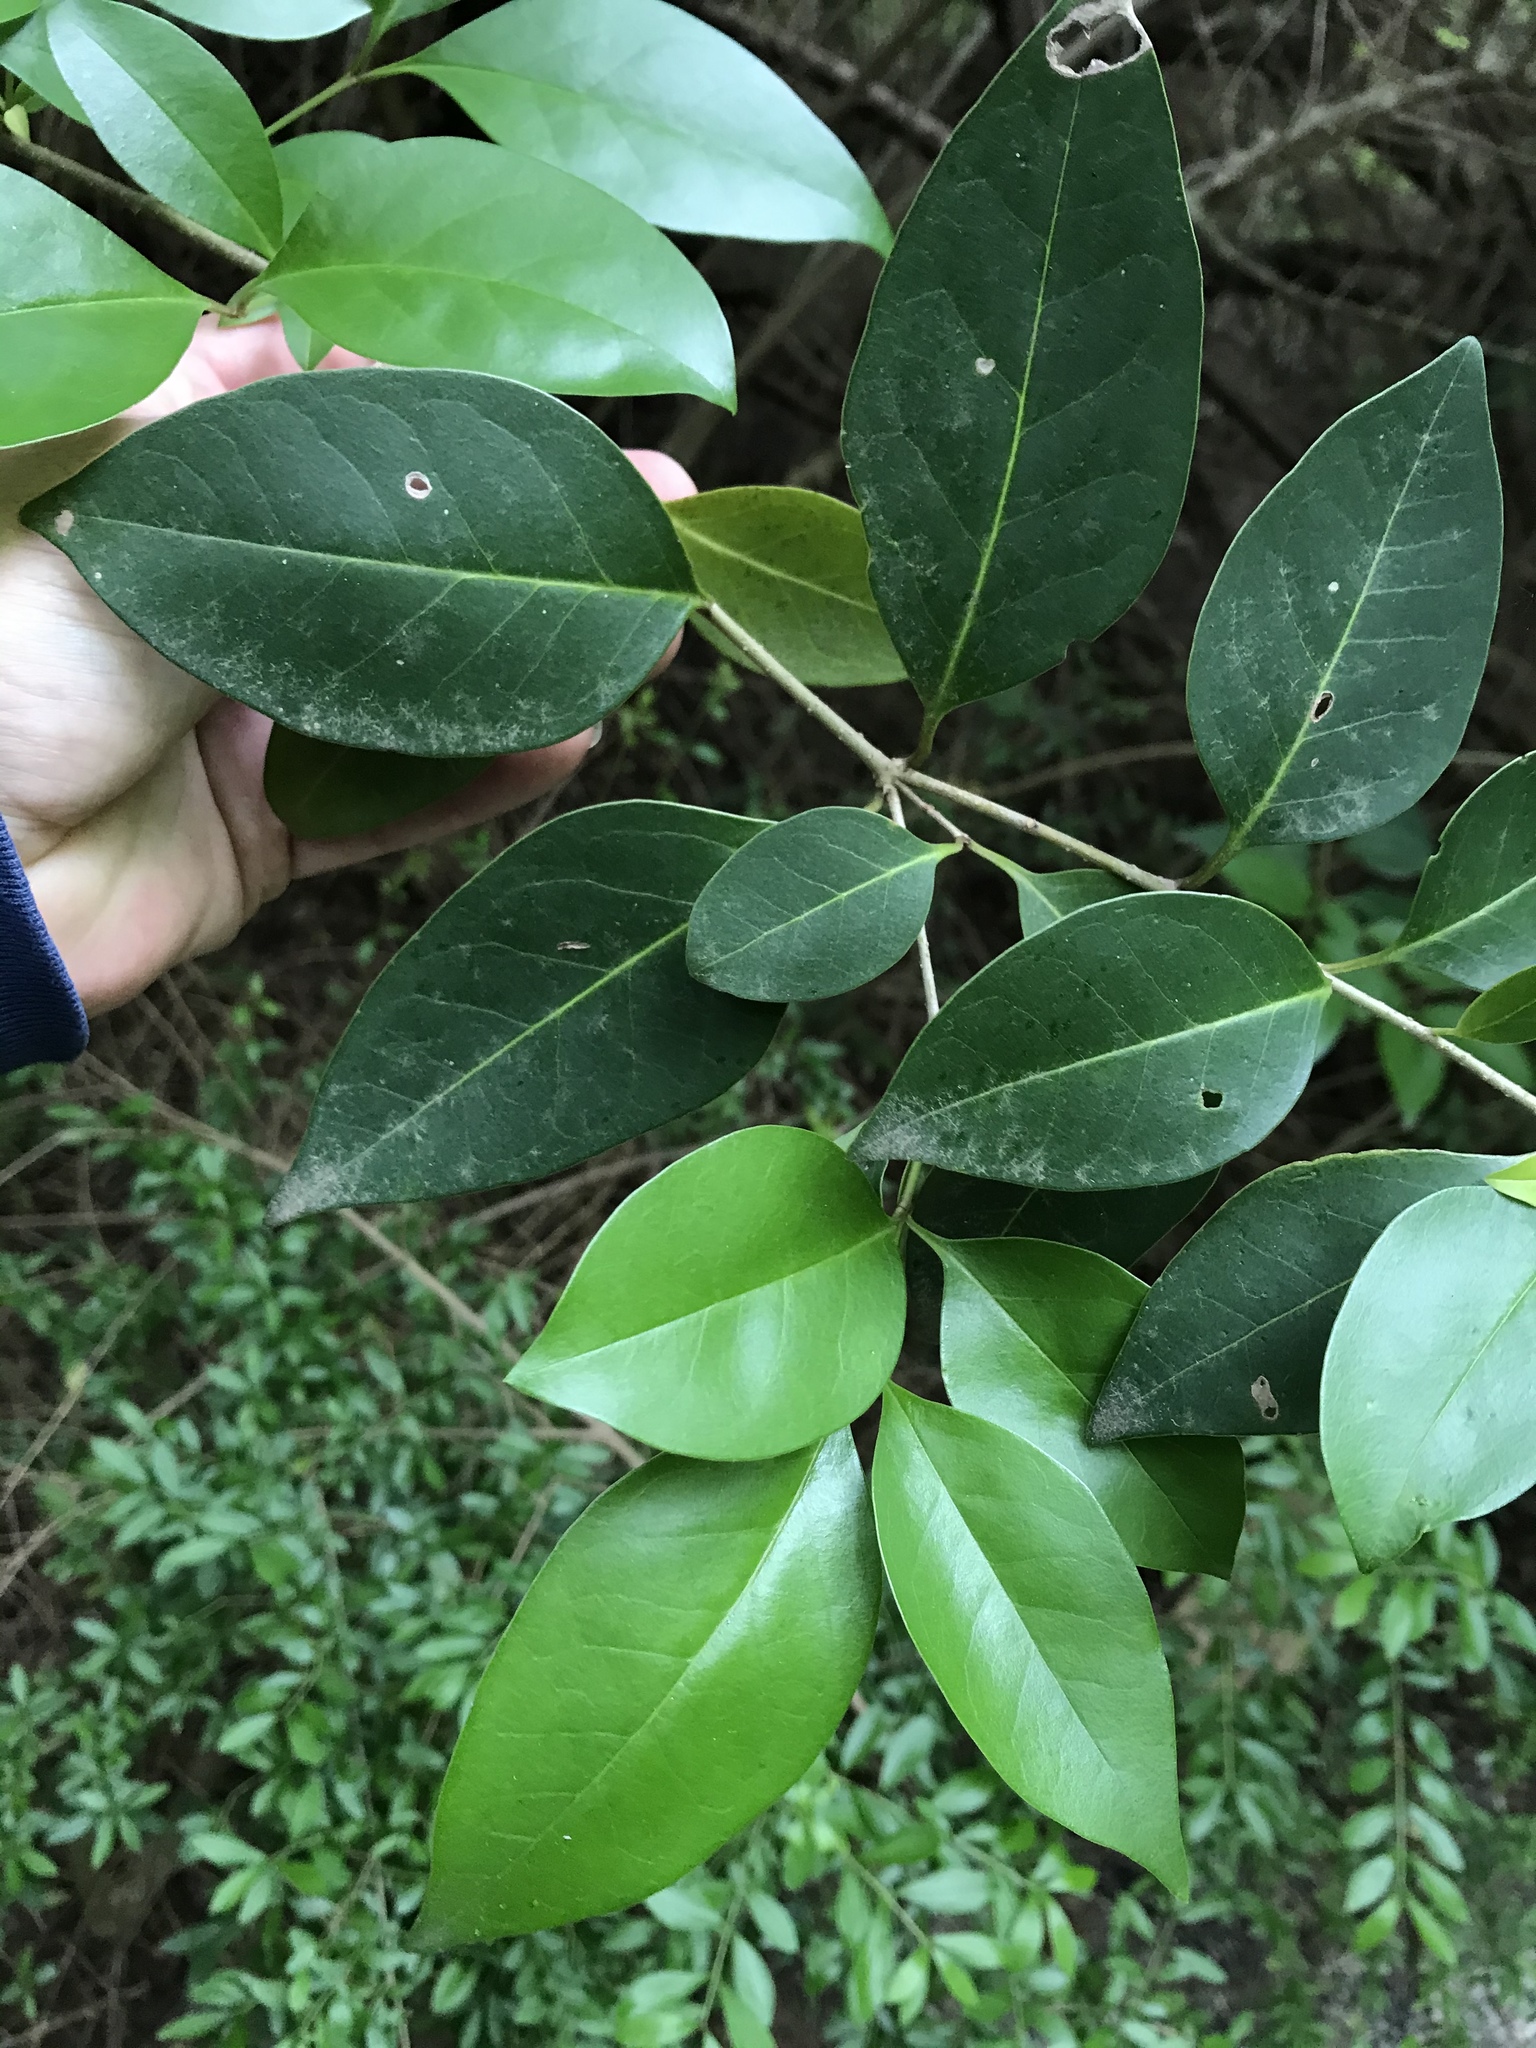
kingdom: Plantae
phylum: Tracheophyta
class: Magnoliopsida
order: Lamiales
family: Oleaceae
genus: Ligustrum
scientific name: Ligustrum lucidum
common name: Glossy privet
